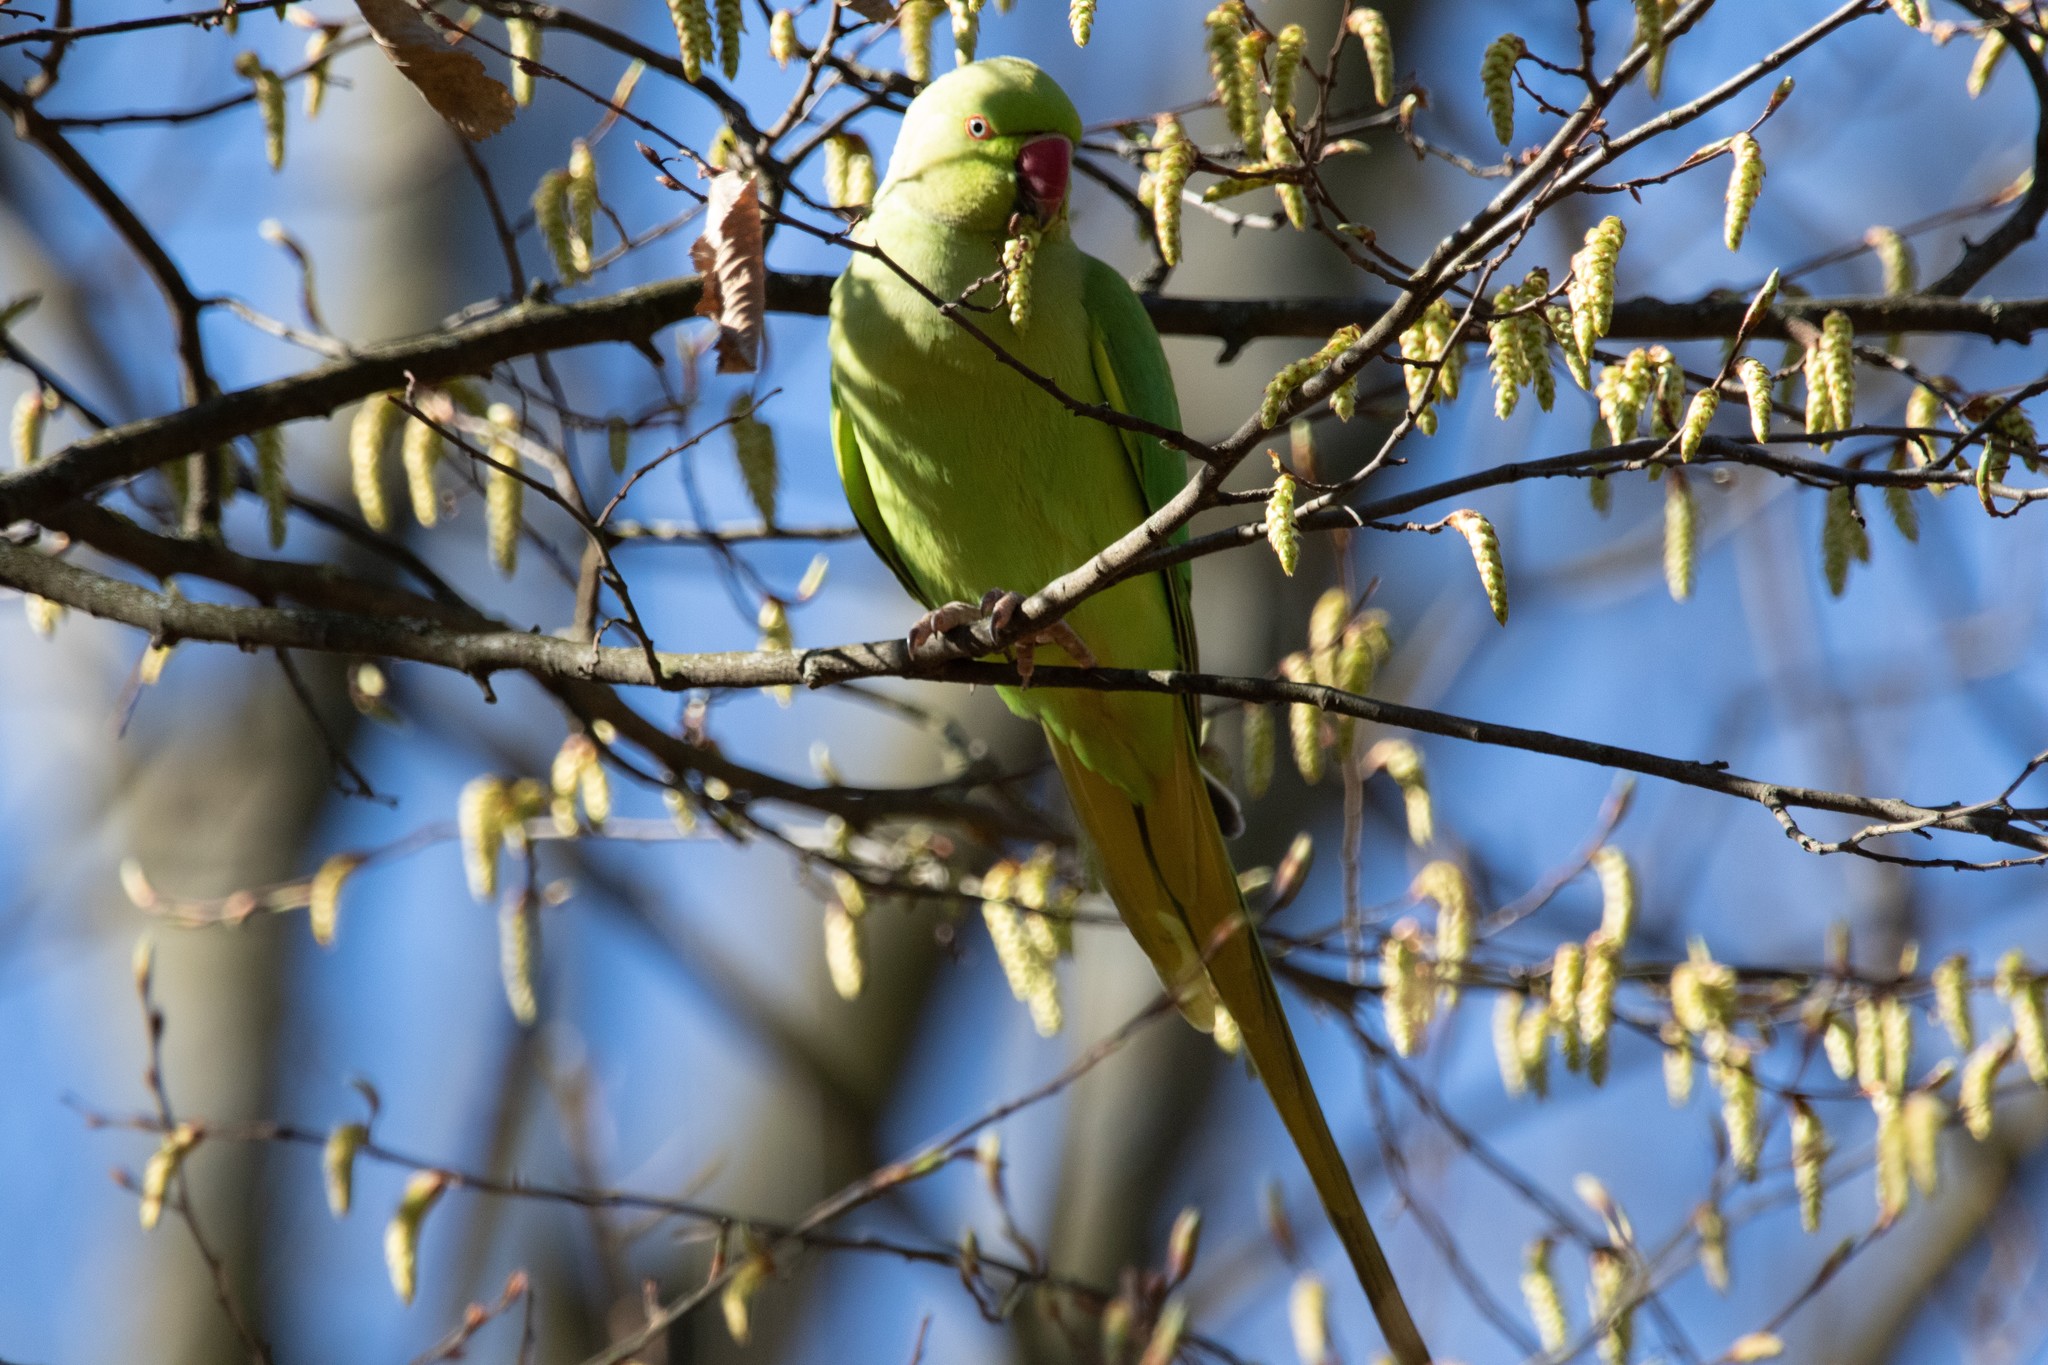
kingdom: Animalia
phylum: Chordata
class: Aves
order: Psittaciformes
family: Psittacidae
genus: Psittacula
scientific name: Psittacula krameri
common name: Rose-ringed parakeet
